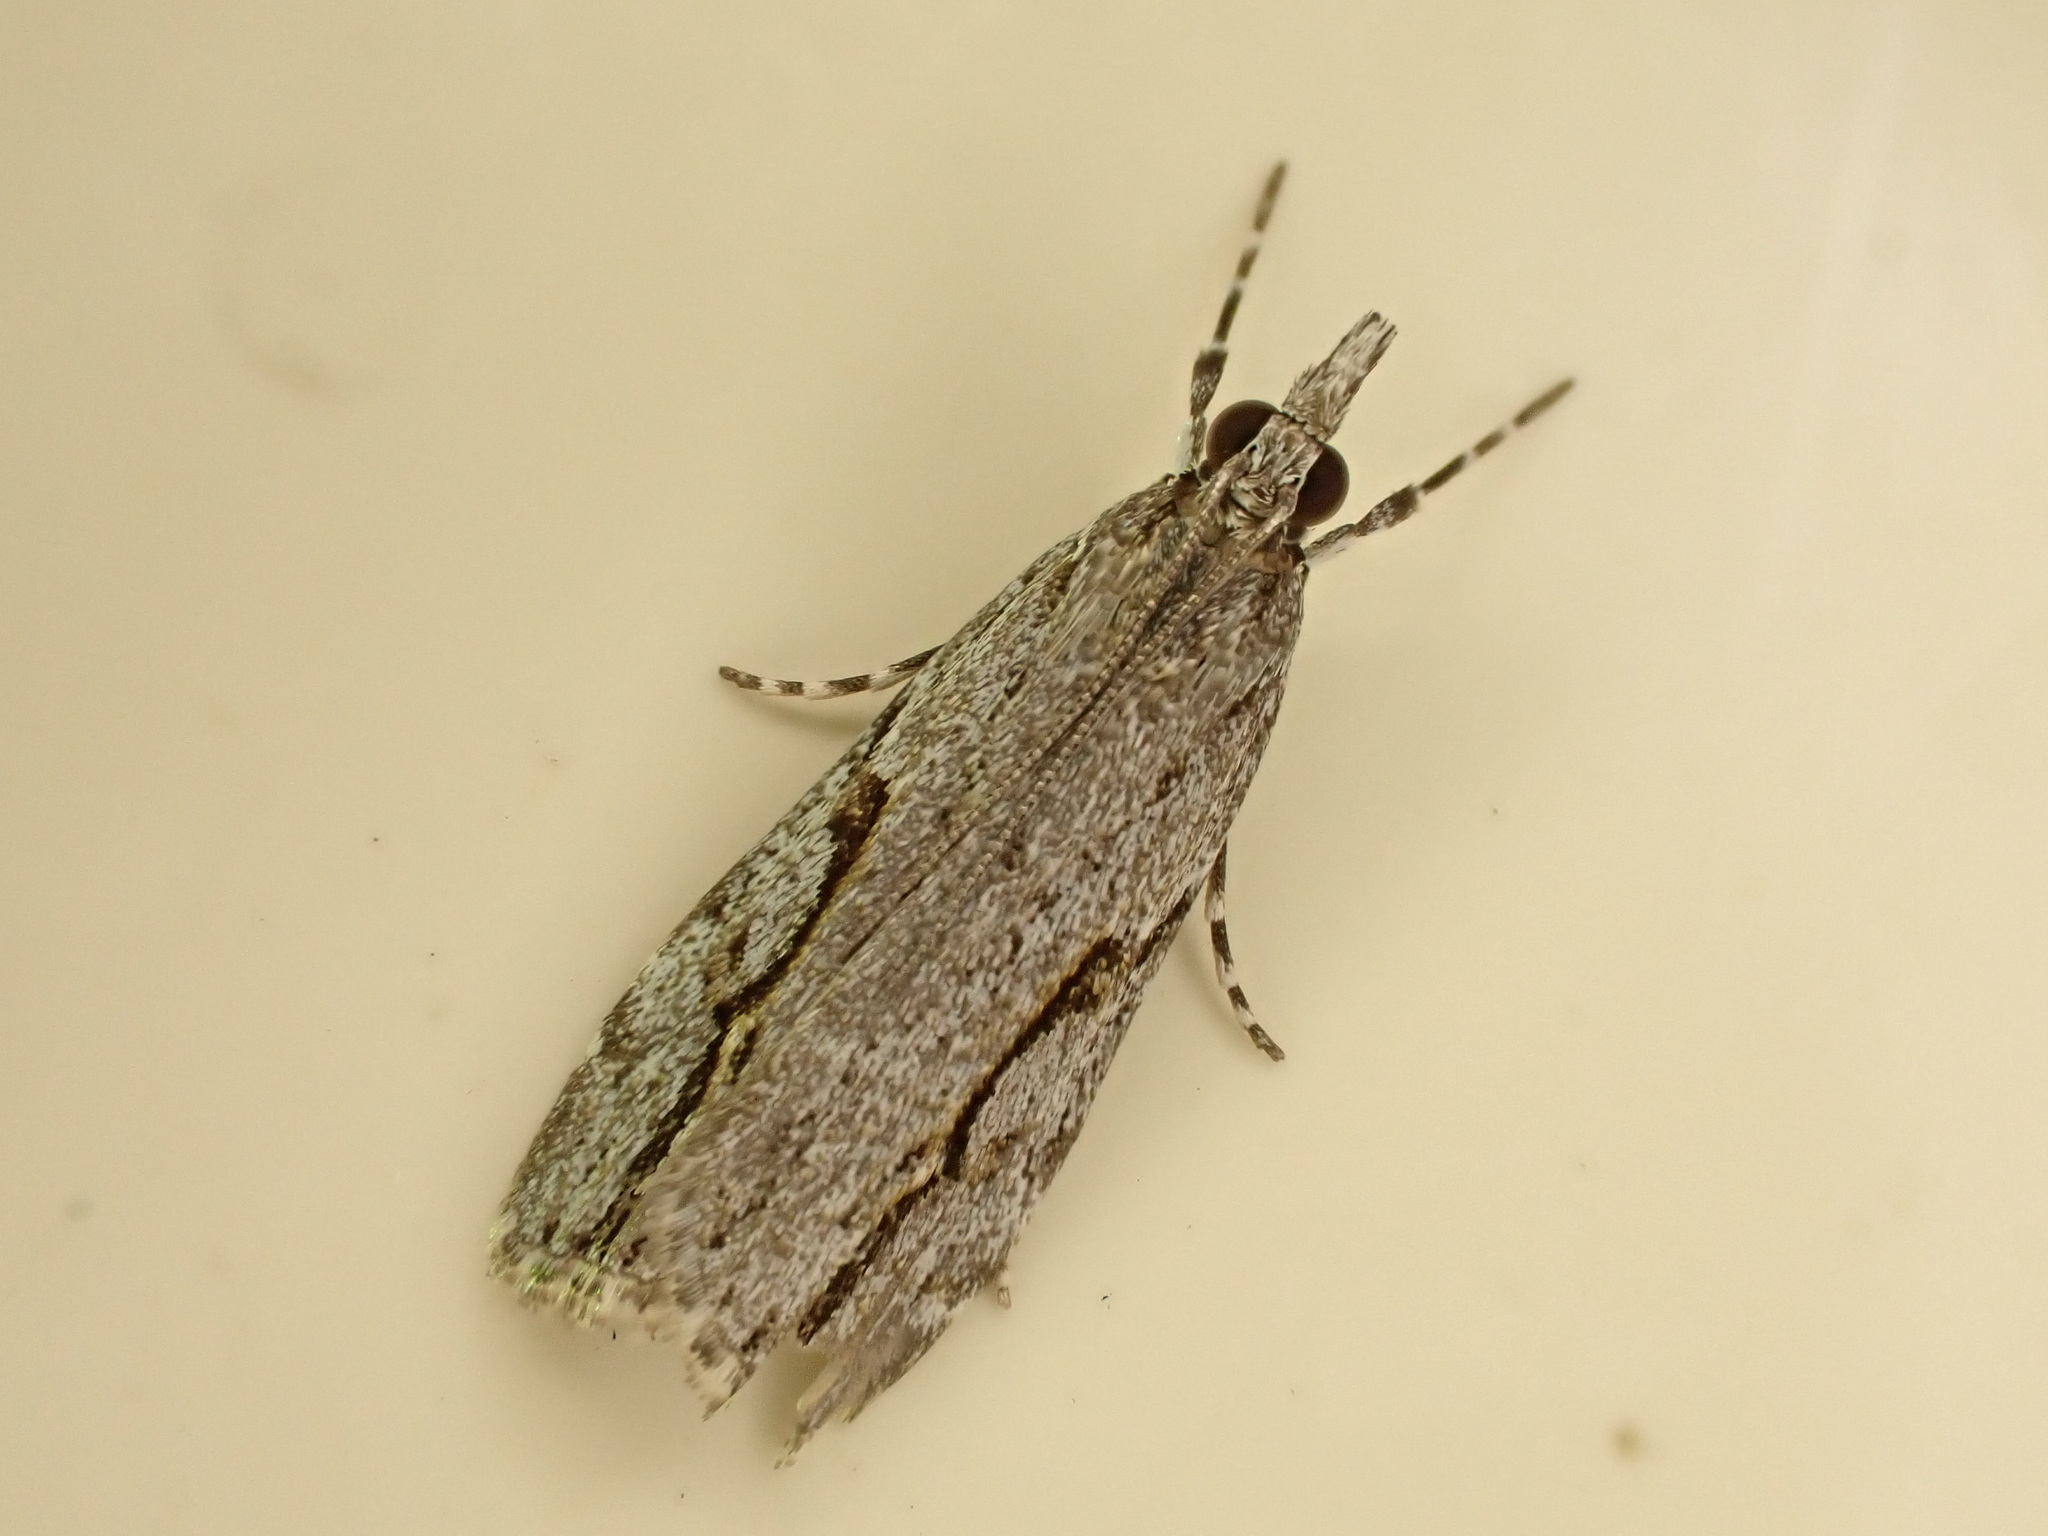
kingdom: Animalia
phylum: Arthropoda
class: Insecta
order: Lepidoptera
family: Crambidae
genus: Eudonia
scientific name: Eudonia bisinualis
